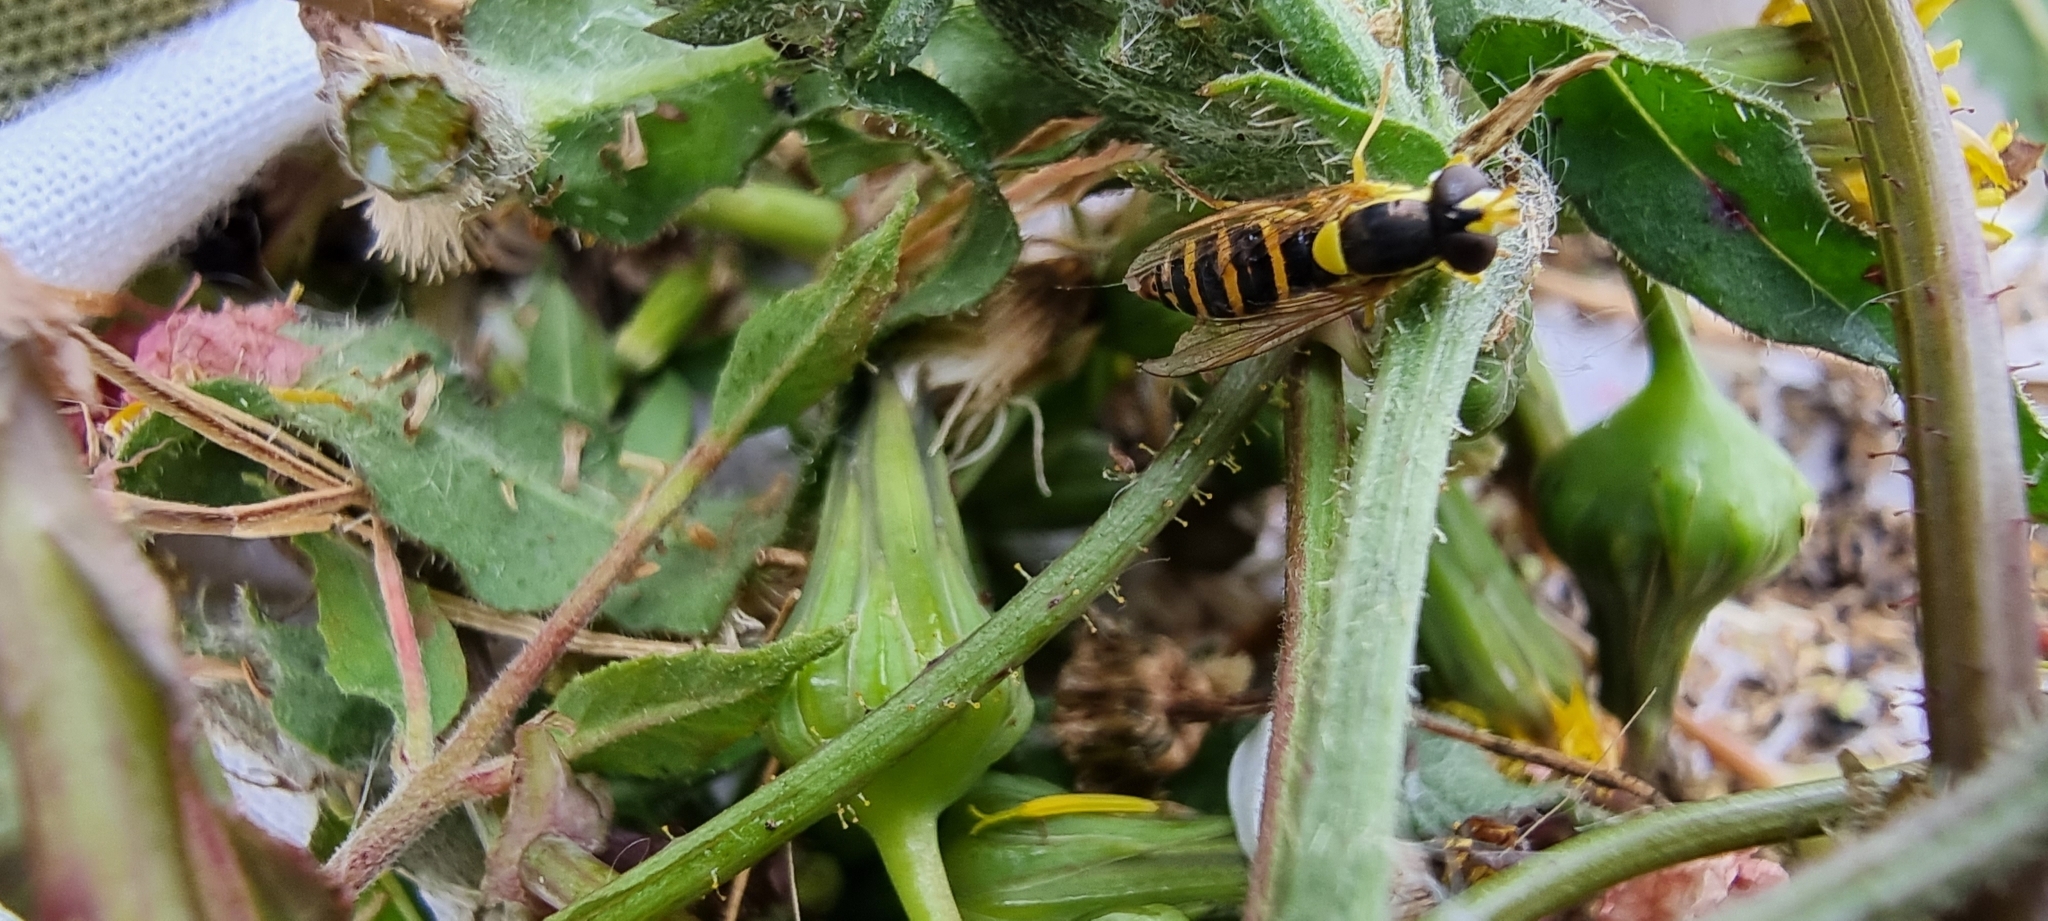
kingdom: Animalia
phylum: Arthropoda
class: Insecta
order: Diptera
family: Syrphidae
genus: Sphaerophoria
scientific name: Sphaerophoria
